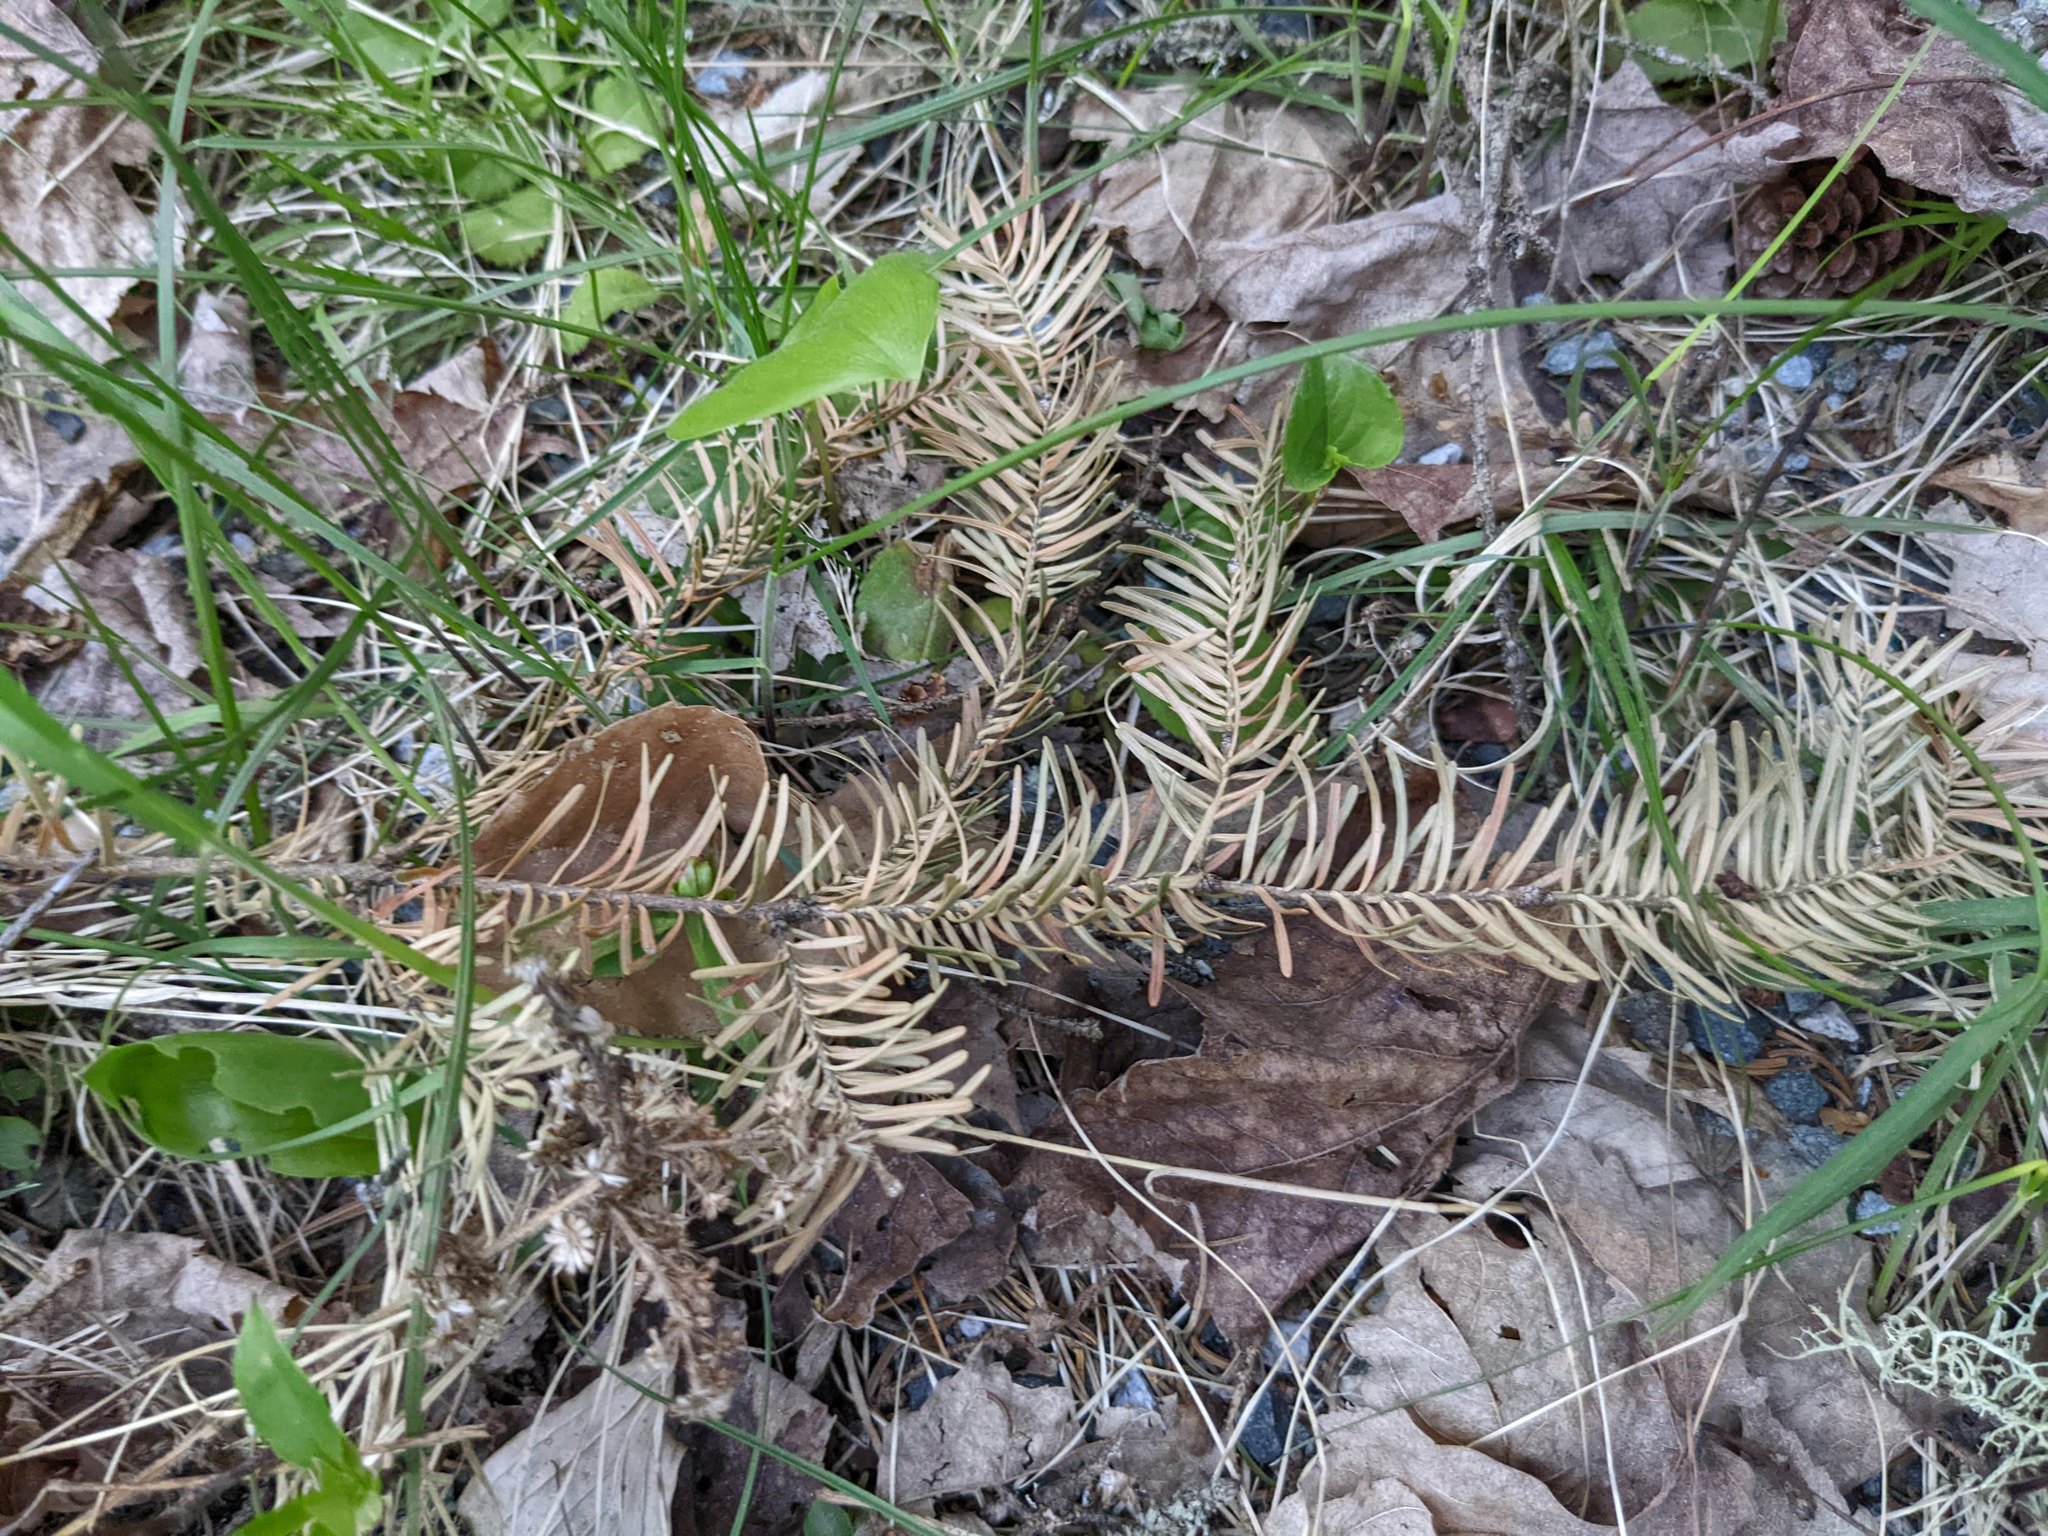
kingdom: Plantae
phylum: Tracheophyta
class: Pinopsida
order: Pinales
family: Pinaceae
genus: Abies
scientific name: Abies balsamea
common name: Balsam fir
